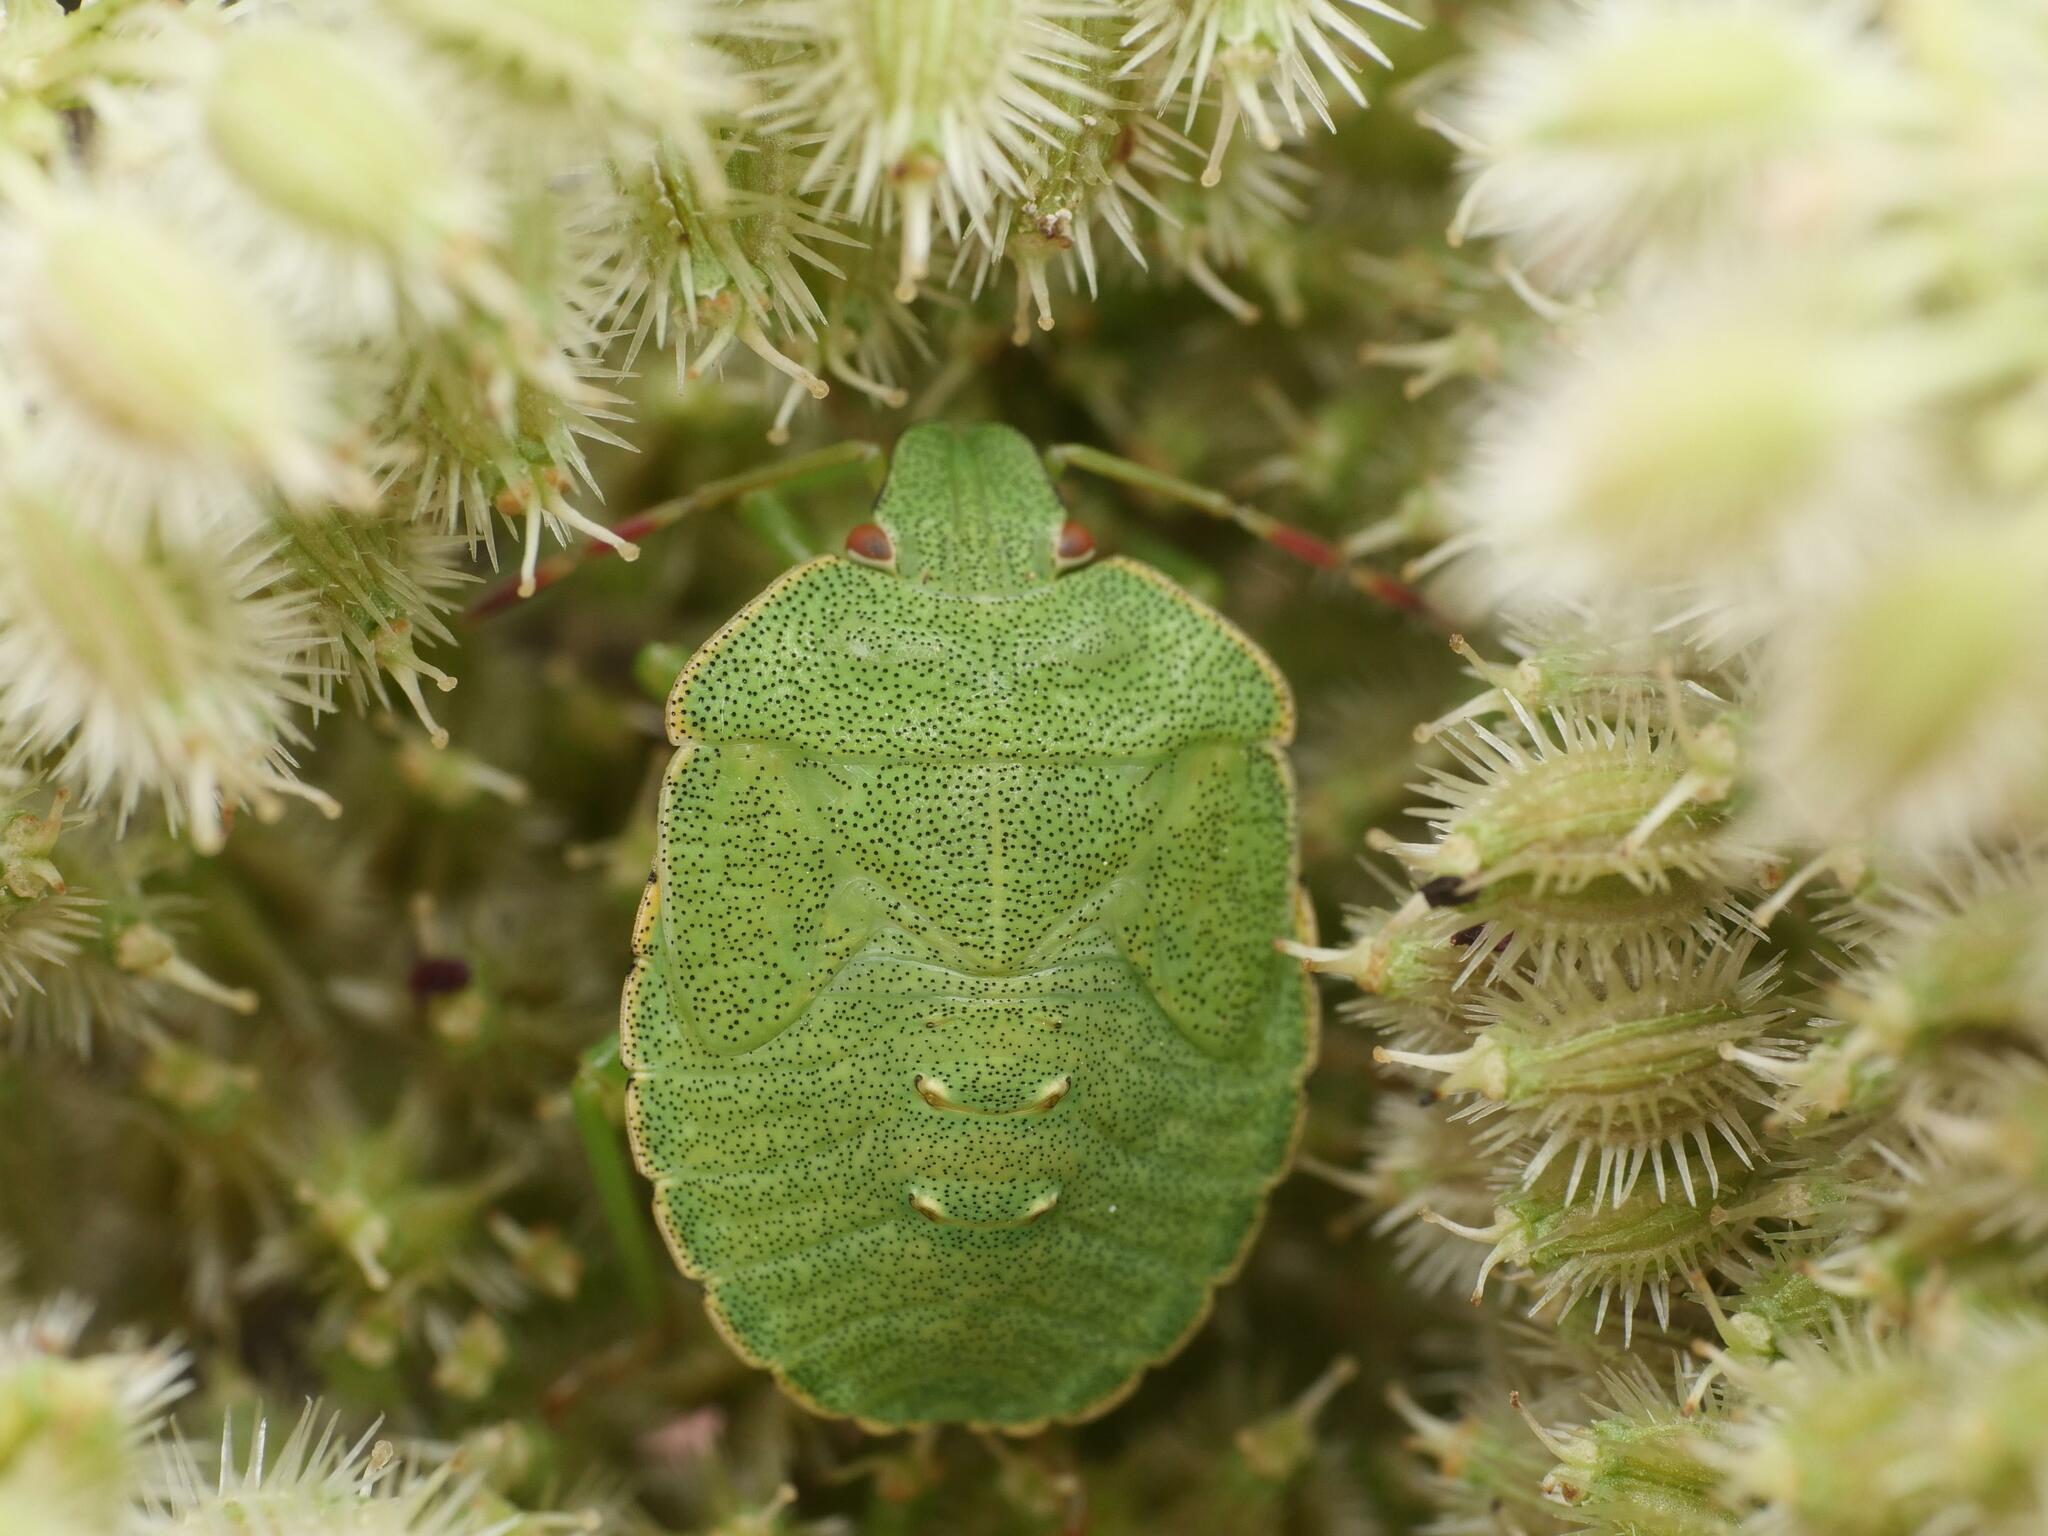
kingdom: Animalia
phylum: Arthropoda
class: Insecta
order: Hemiptera
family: Pentatomidae
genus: Palomena
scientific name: Palomena prasina
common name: Green shieldbug
